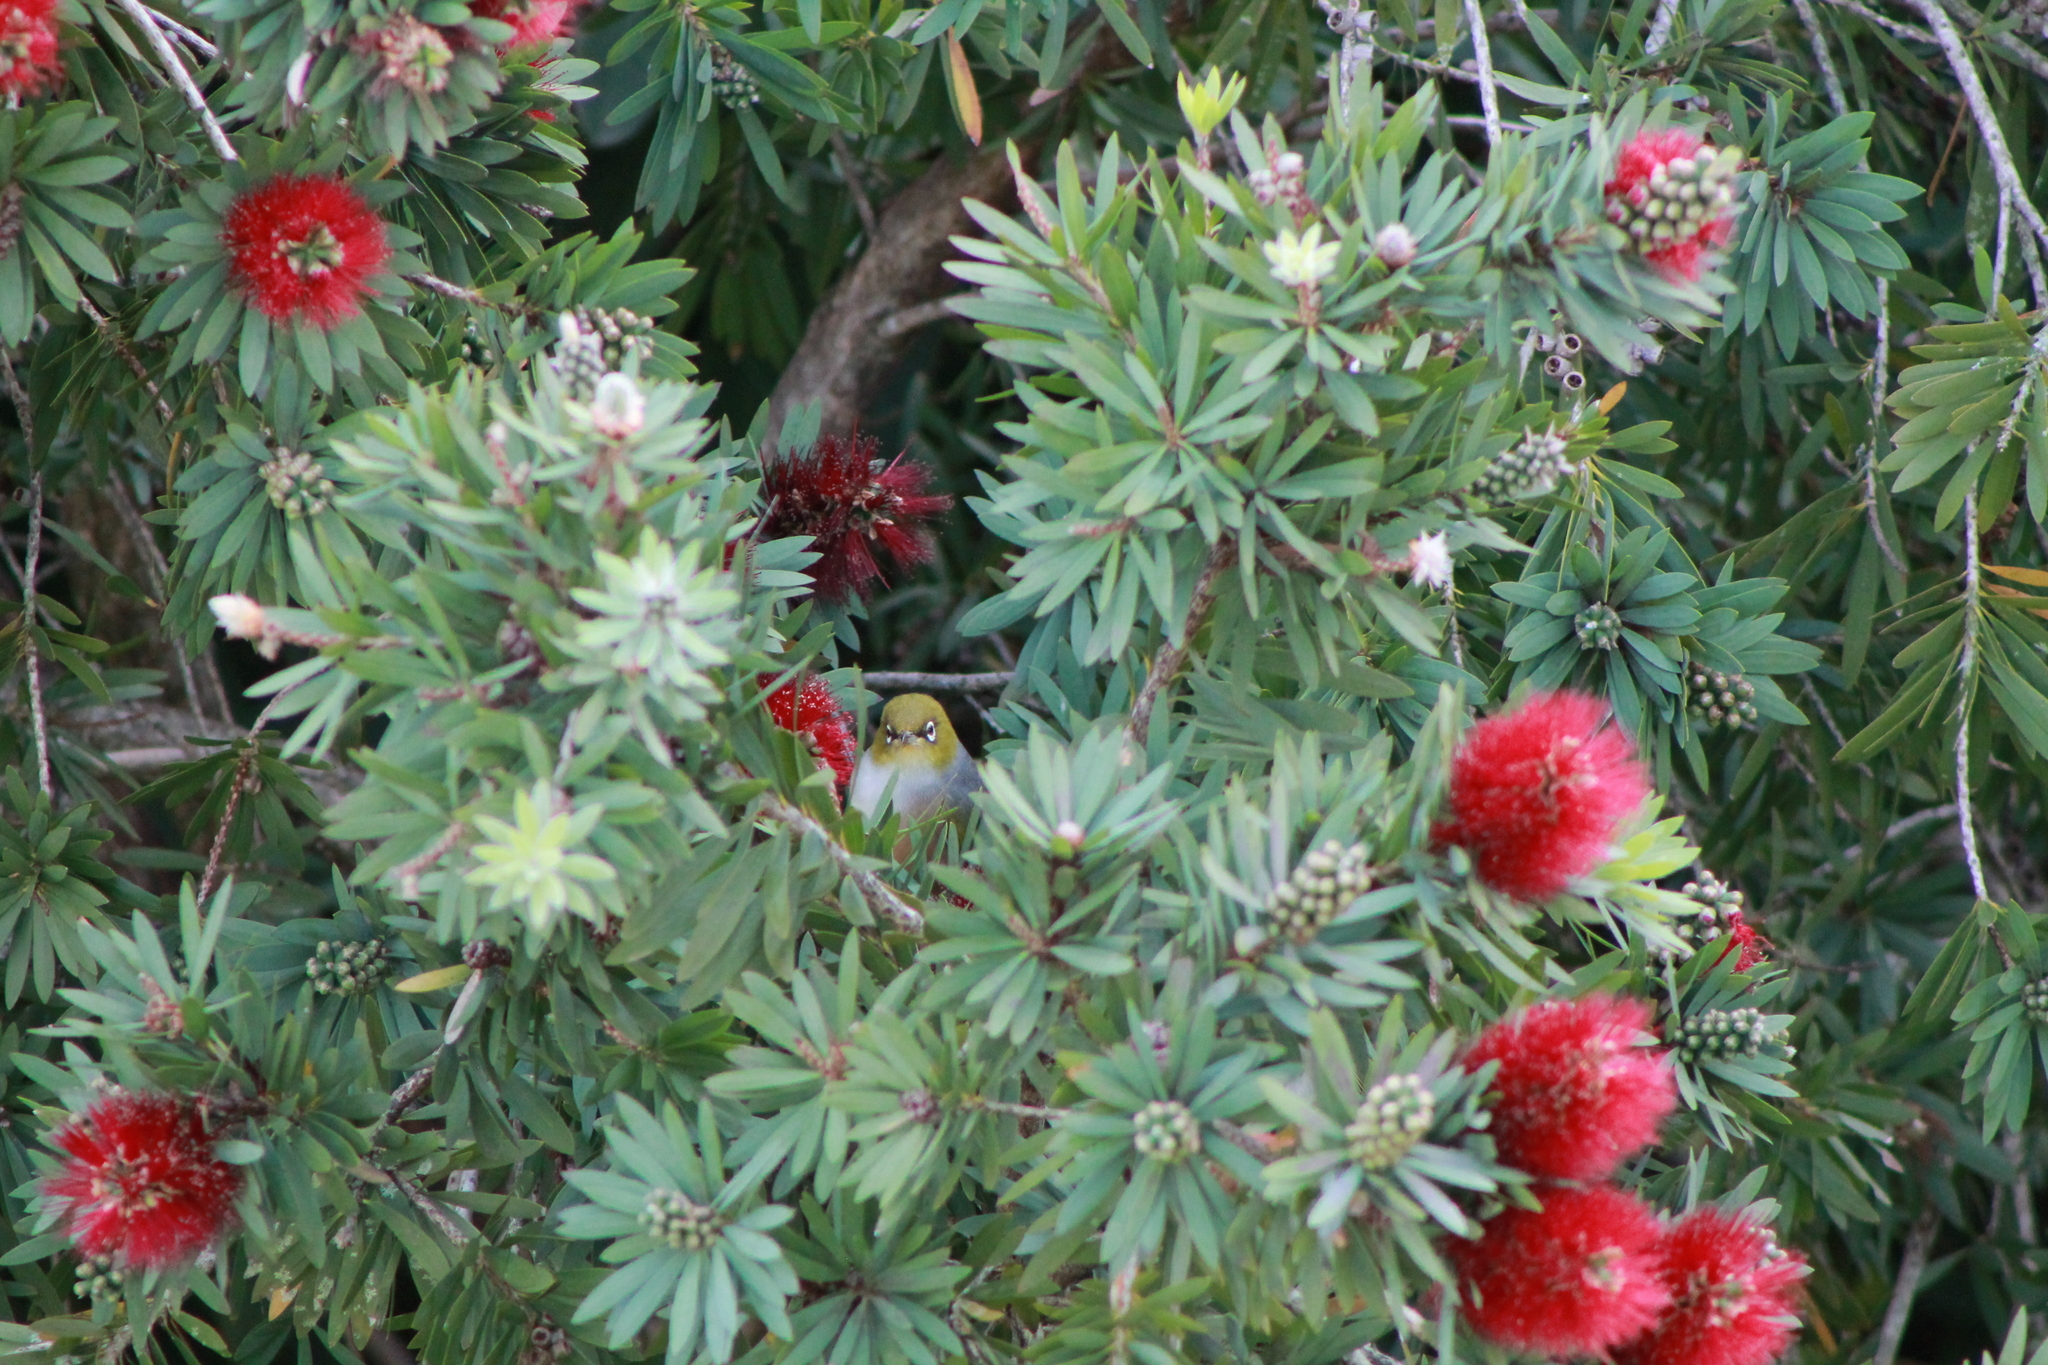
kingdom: Animalia
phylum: Chordata
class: Aves
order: Passeriformes
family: Zosteropidae
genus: Zosterops
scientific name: Zosterops lateralis
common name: Silvereye
